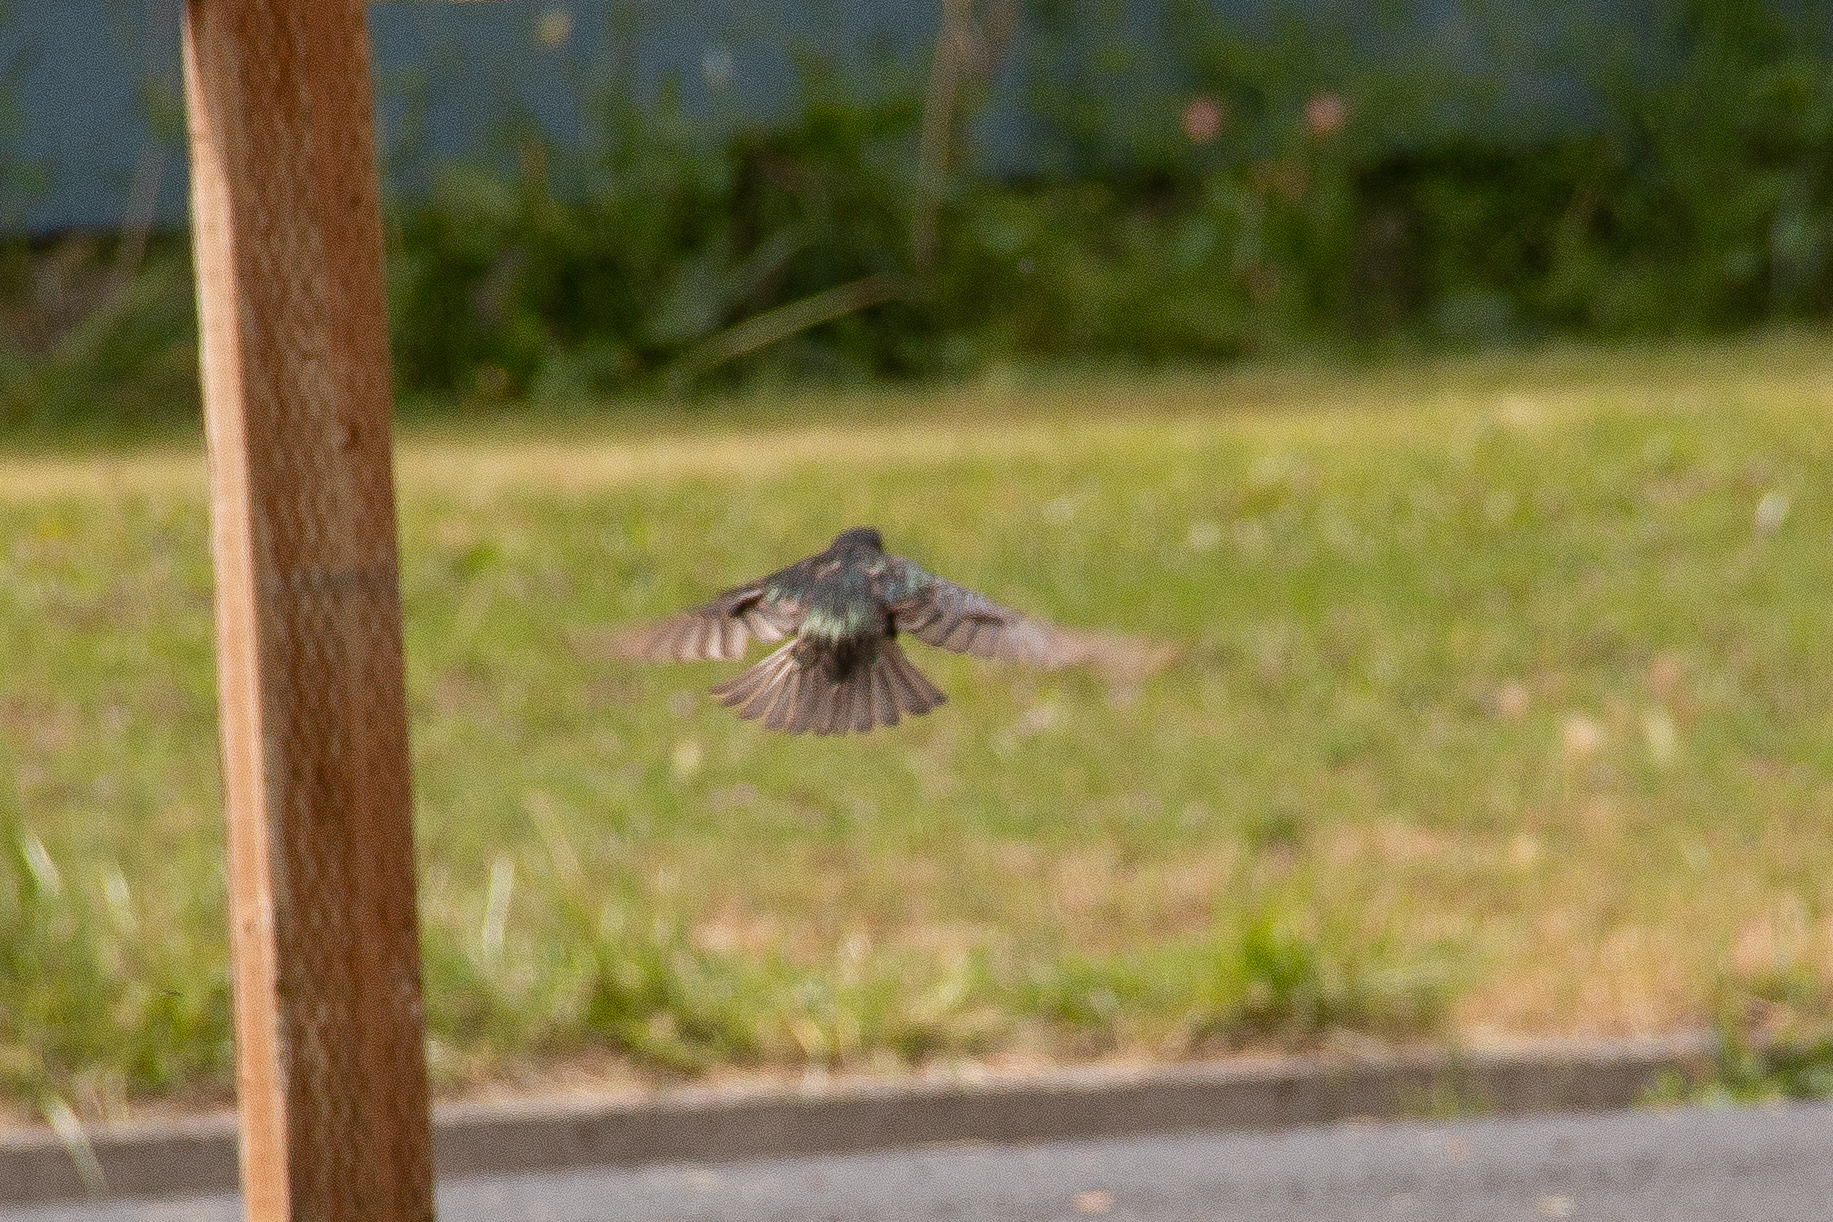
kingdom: Animalia
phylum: Chordata
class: Aves
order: Passeriformes
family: Sturnidae
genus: Sturnus
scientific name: Sturnus vulgaris
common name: Common starling
